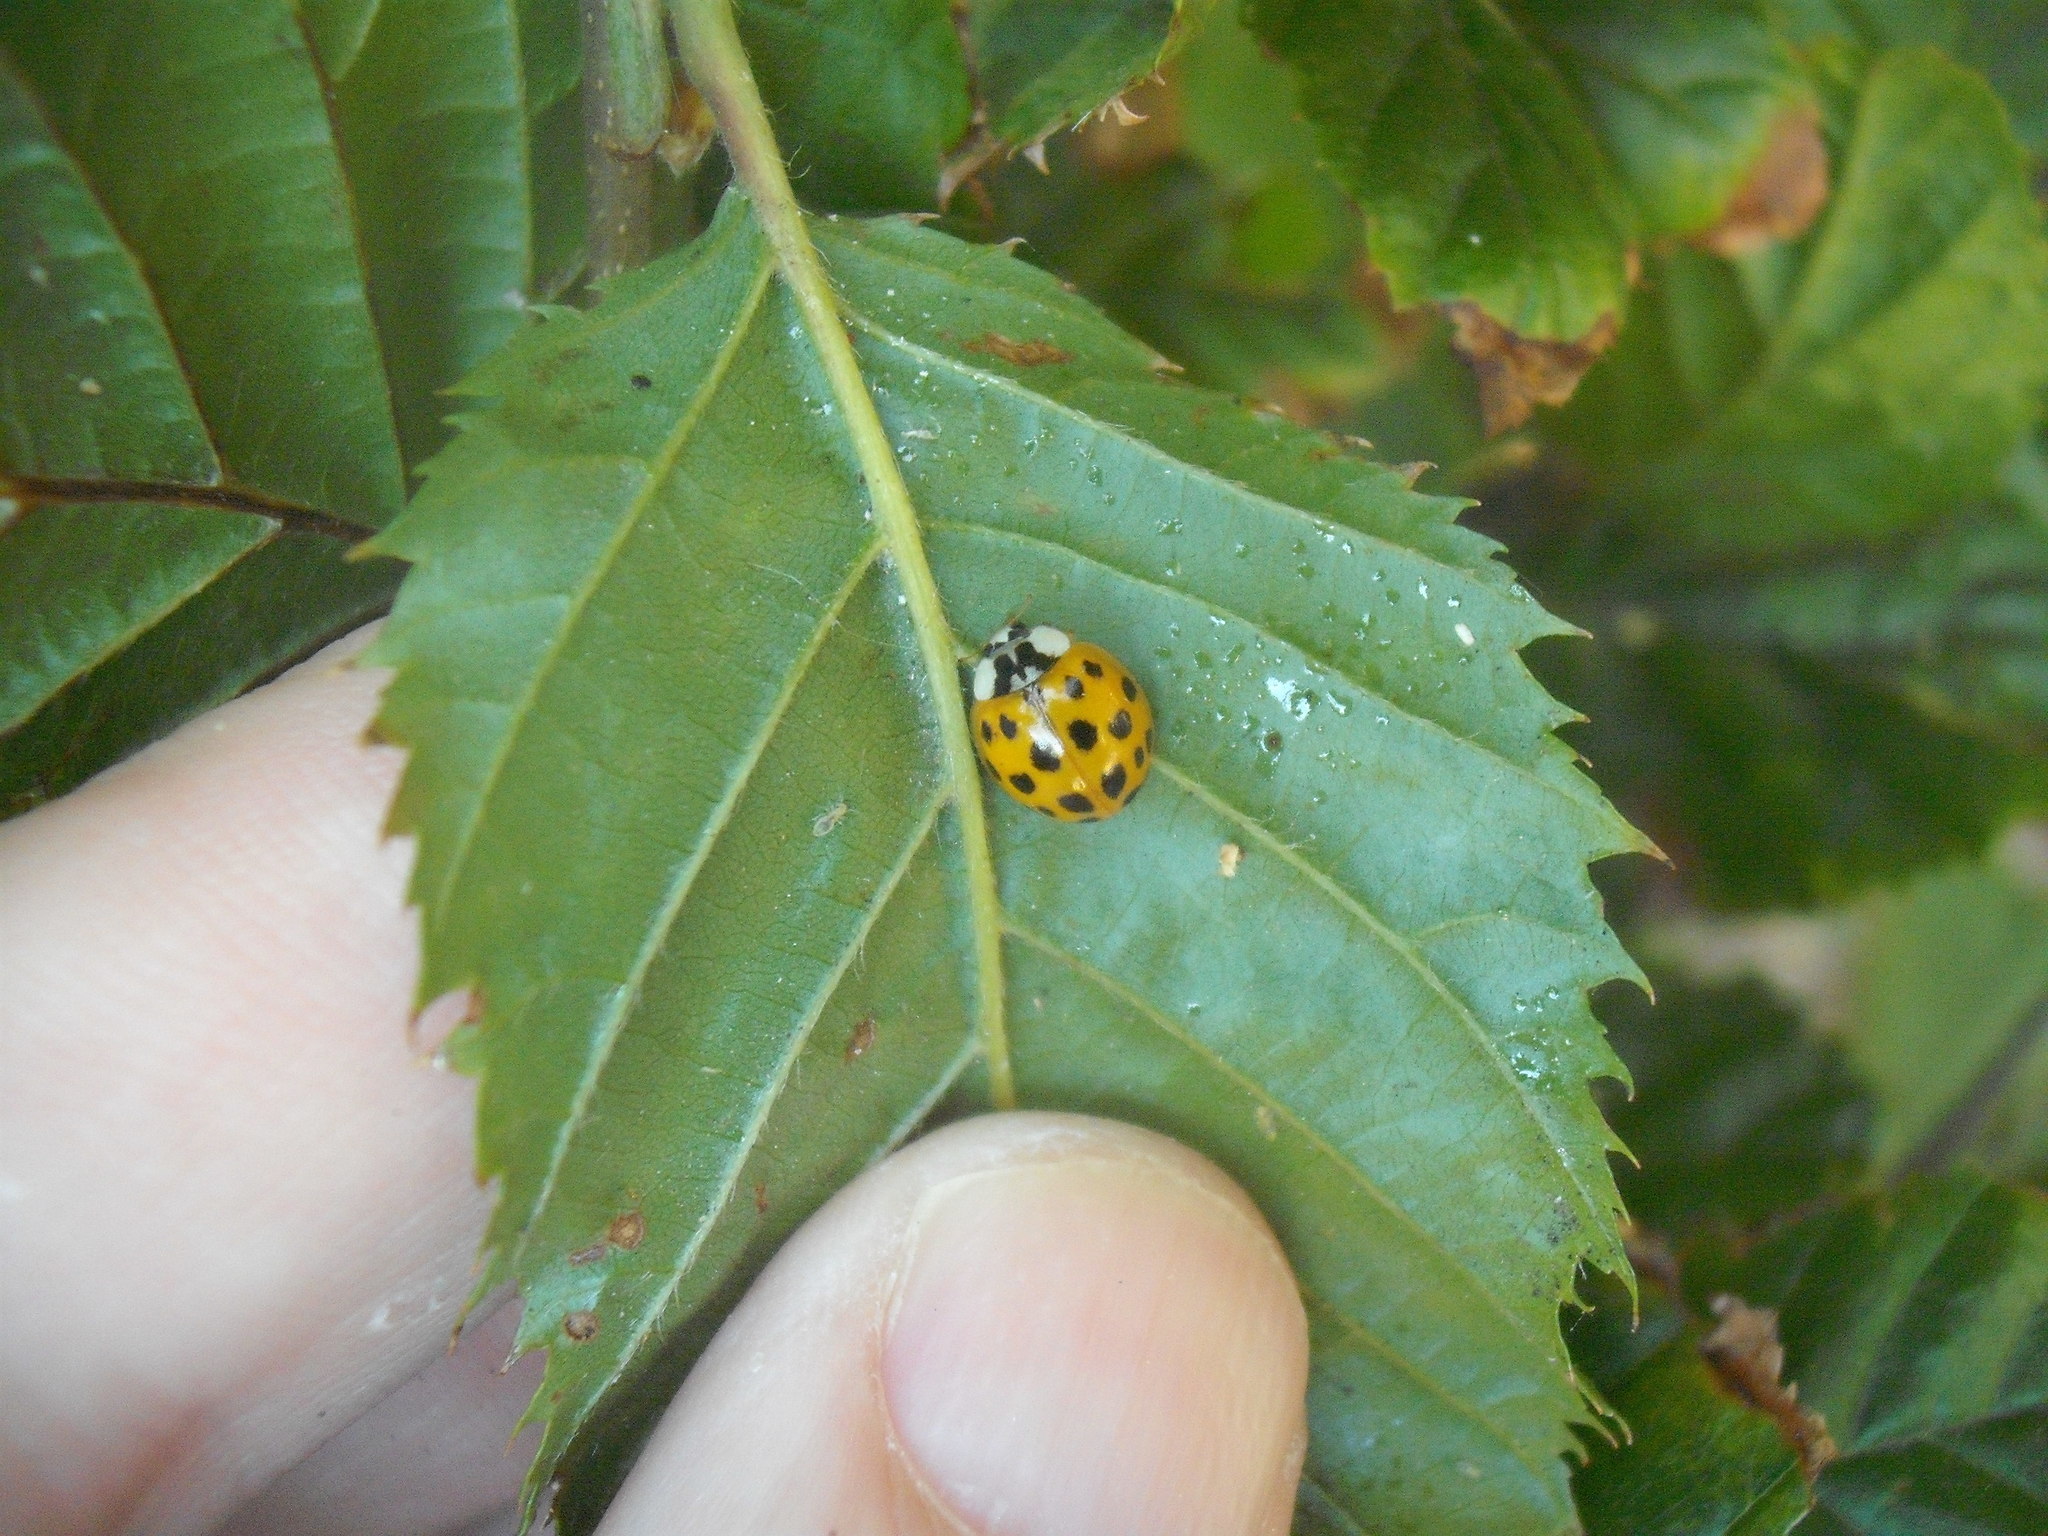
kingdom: Animalia
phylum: Arthropoda
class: Insecta
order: Coleoptera
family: Coccinellidae
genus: Harmonia
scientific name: Harmonia axyridis
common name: Harlequin ladybird
